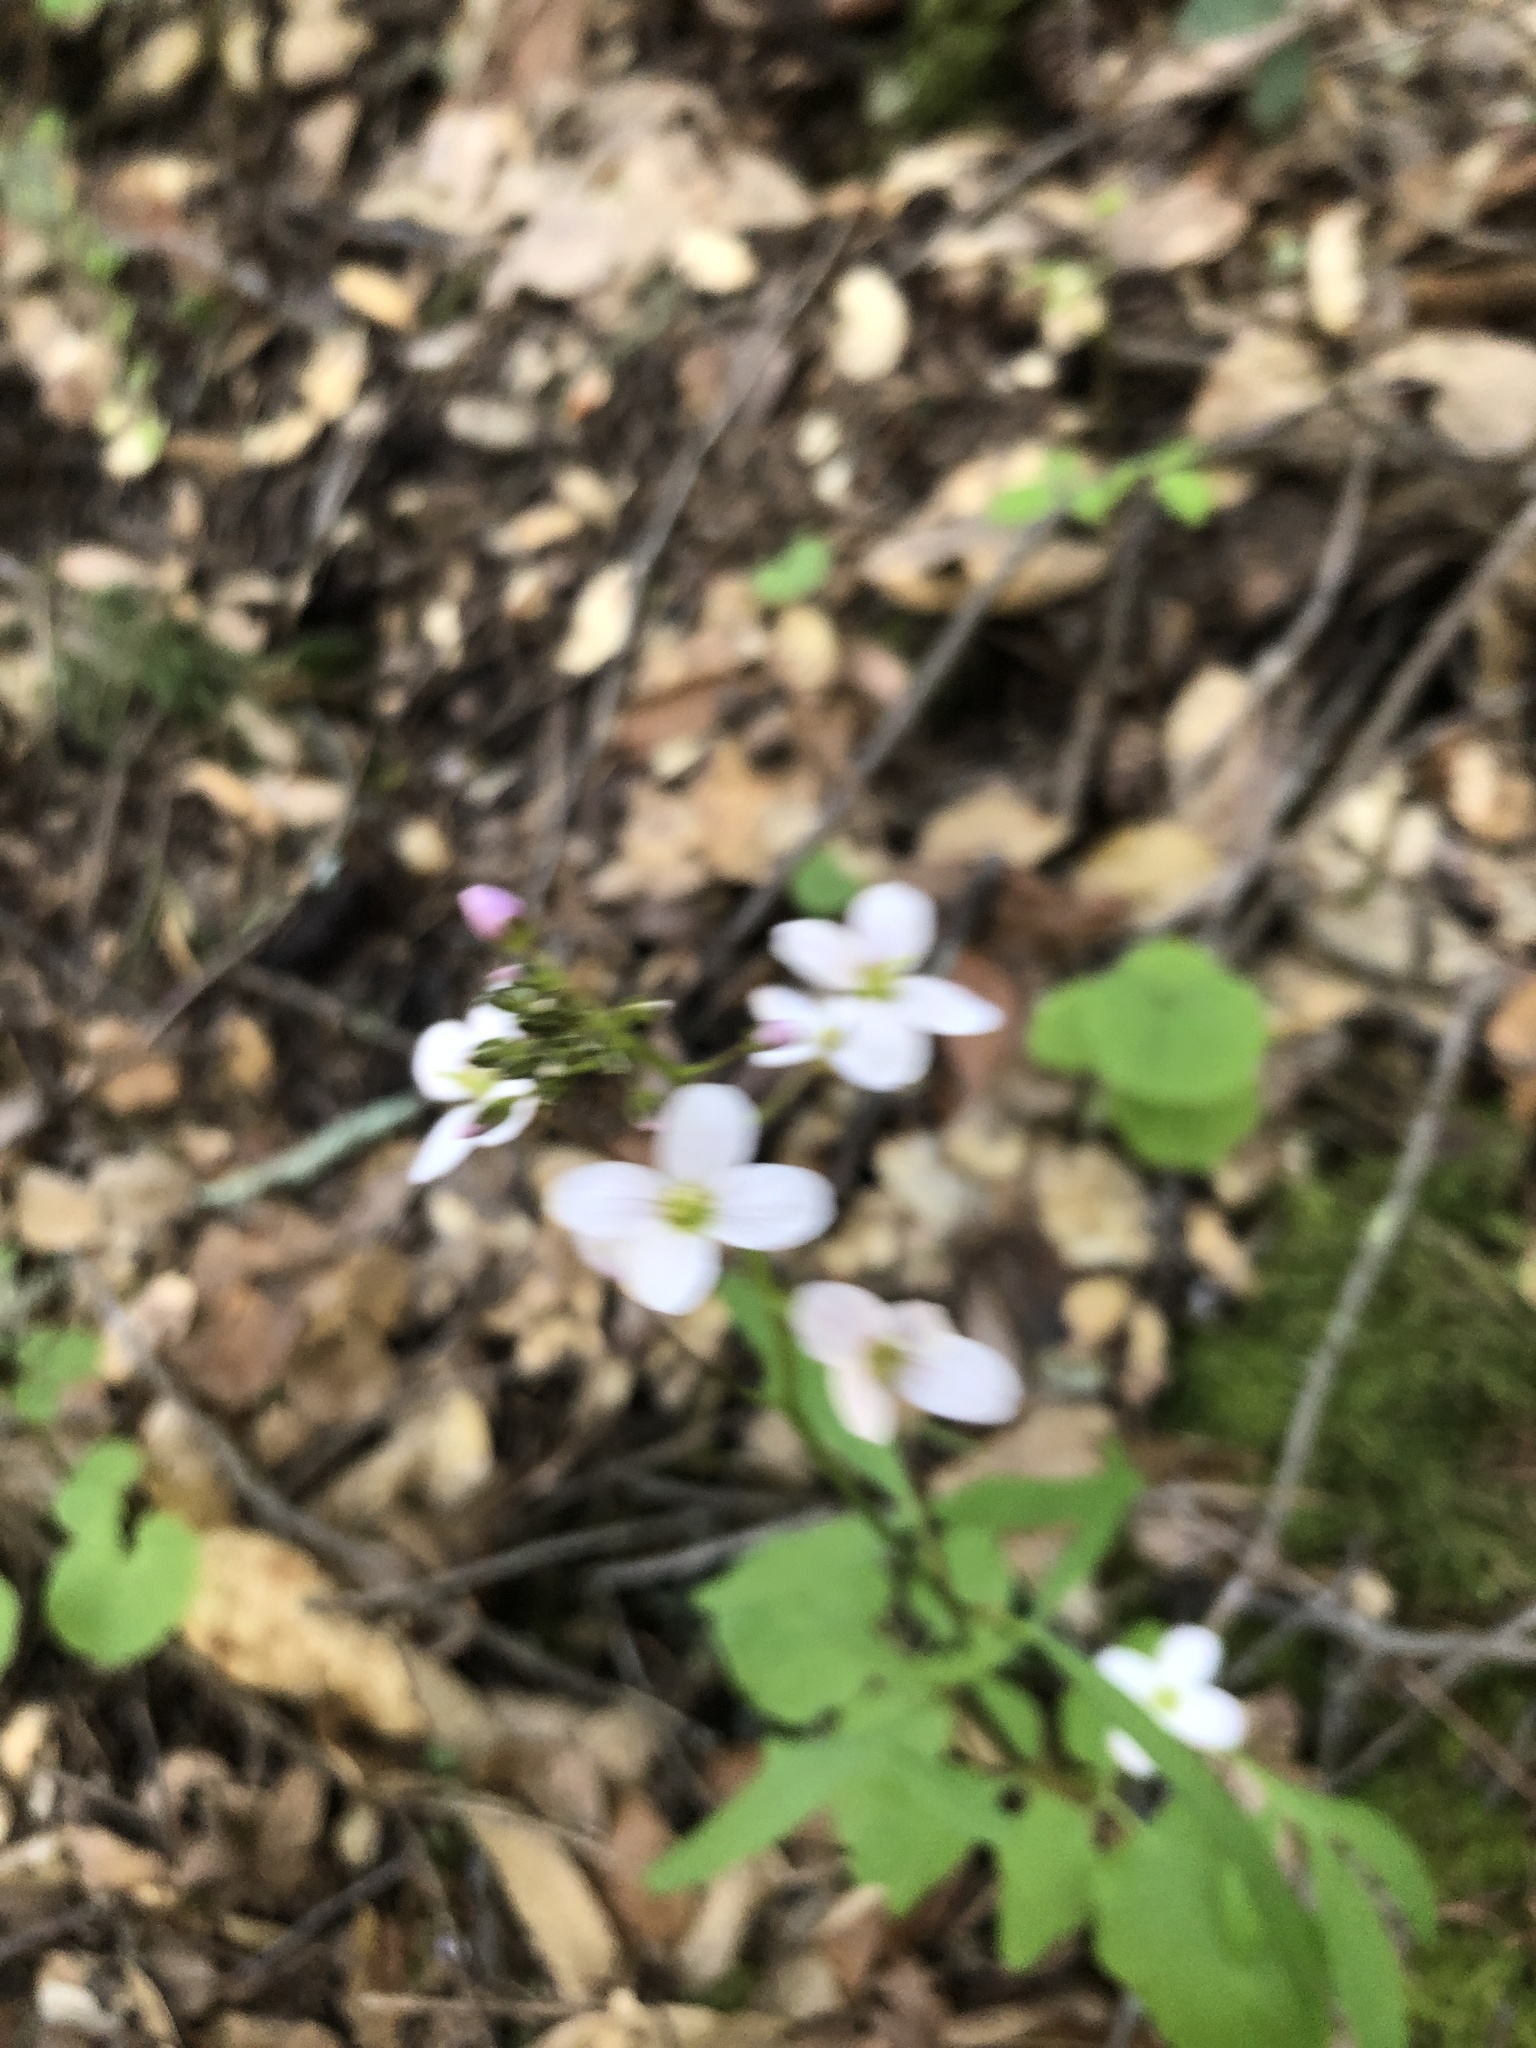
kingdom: Plantae
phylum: Tracheophyta
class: Magnoliopsida
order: Brassicales
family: Brassicaceae
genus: Cardamine
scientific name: Cardamine californica
